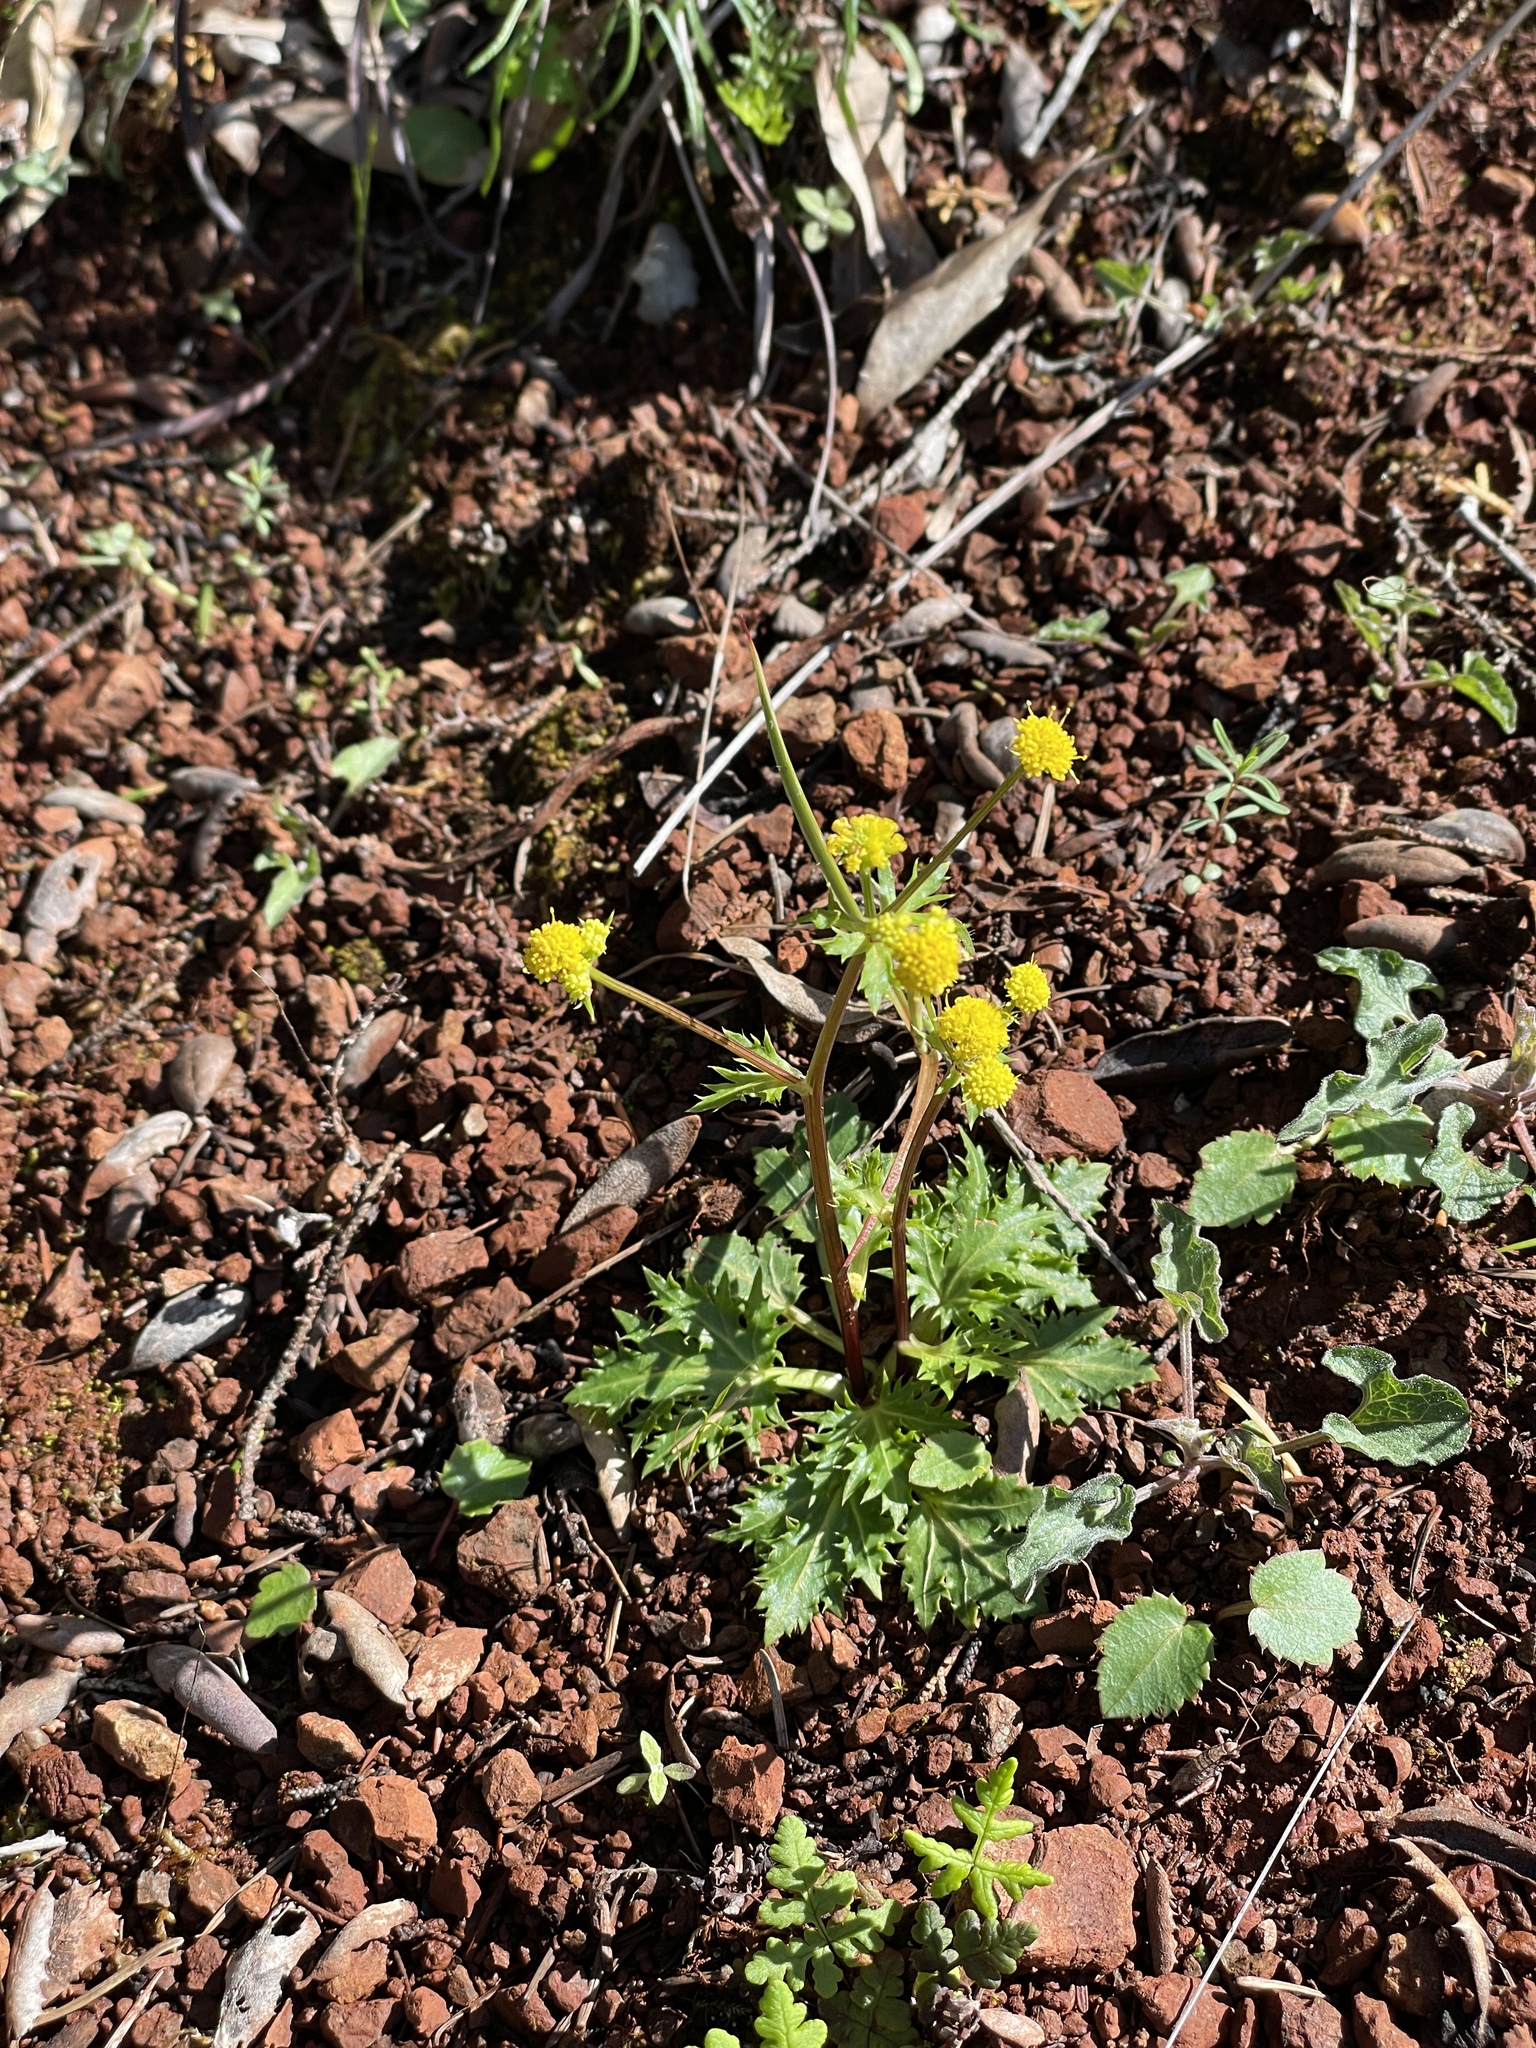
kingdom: Plantae
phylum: Tracheophyta
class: Magnoliopsida
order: Apiales
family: Apiaceae
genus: Sanicula
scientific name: Sanicula laciniata
